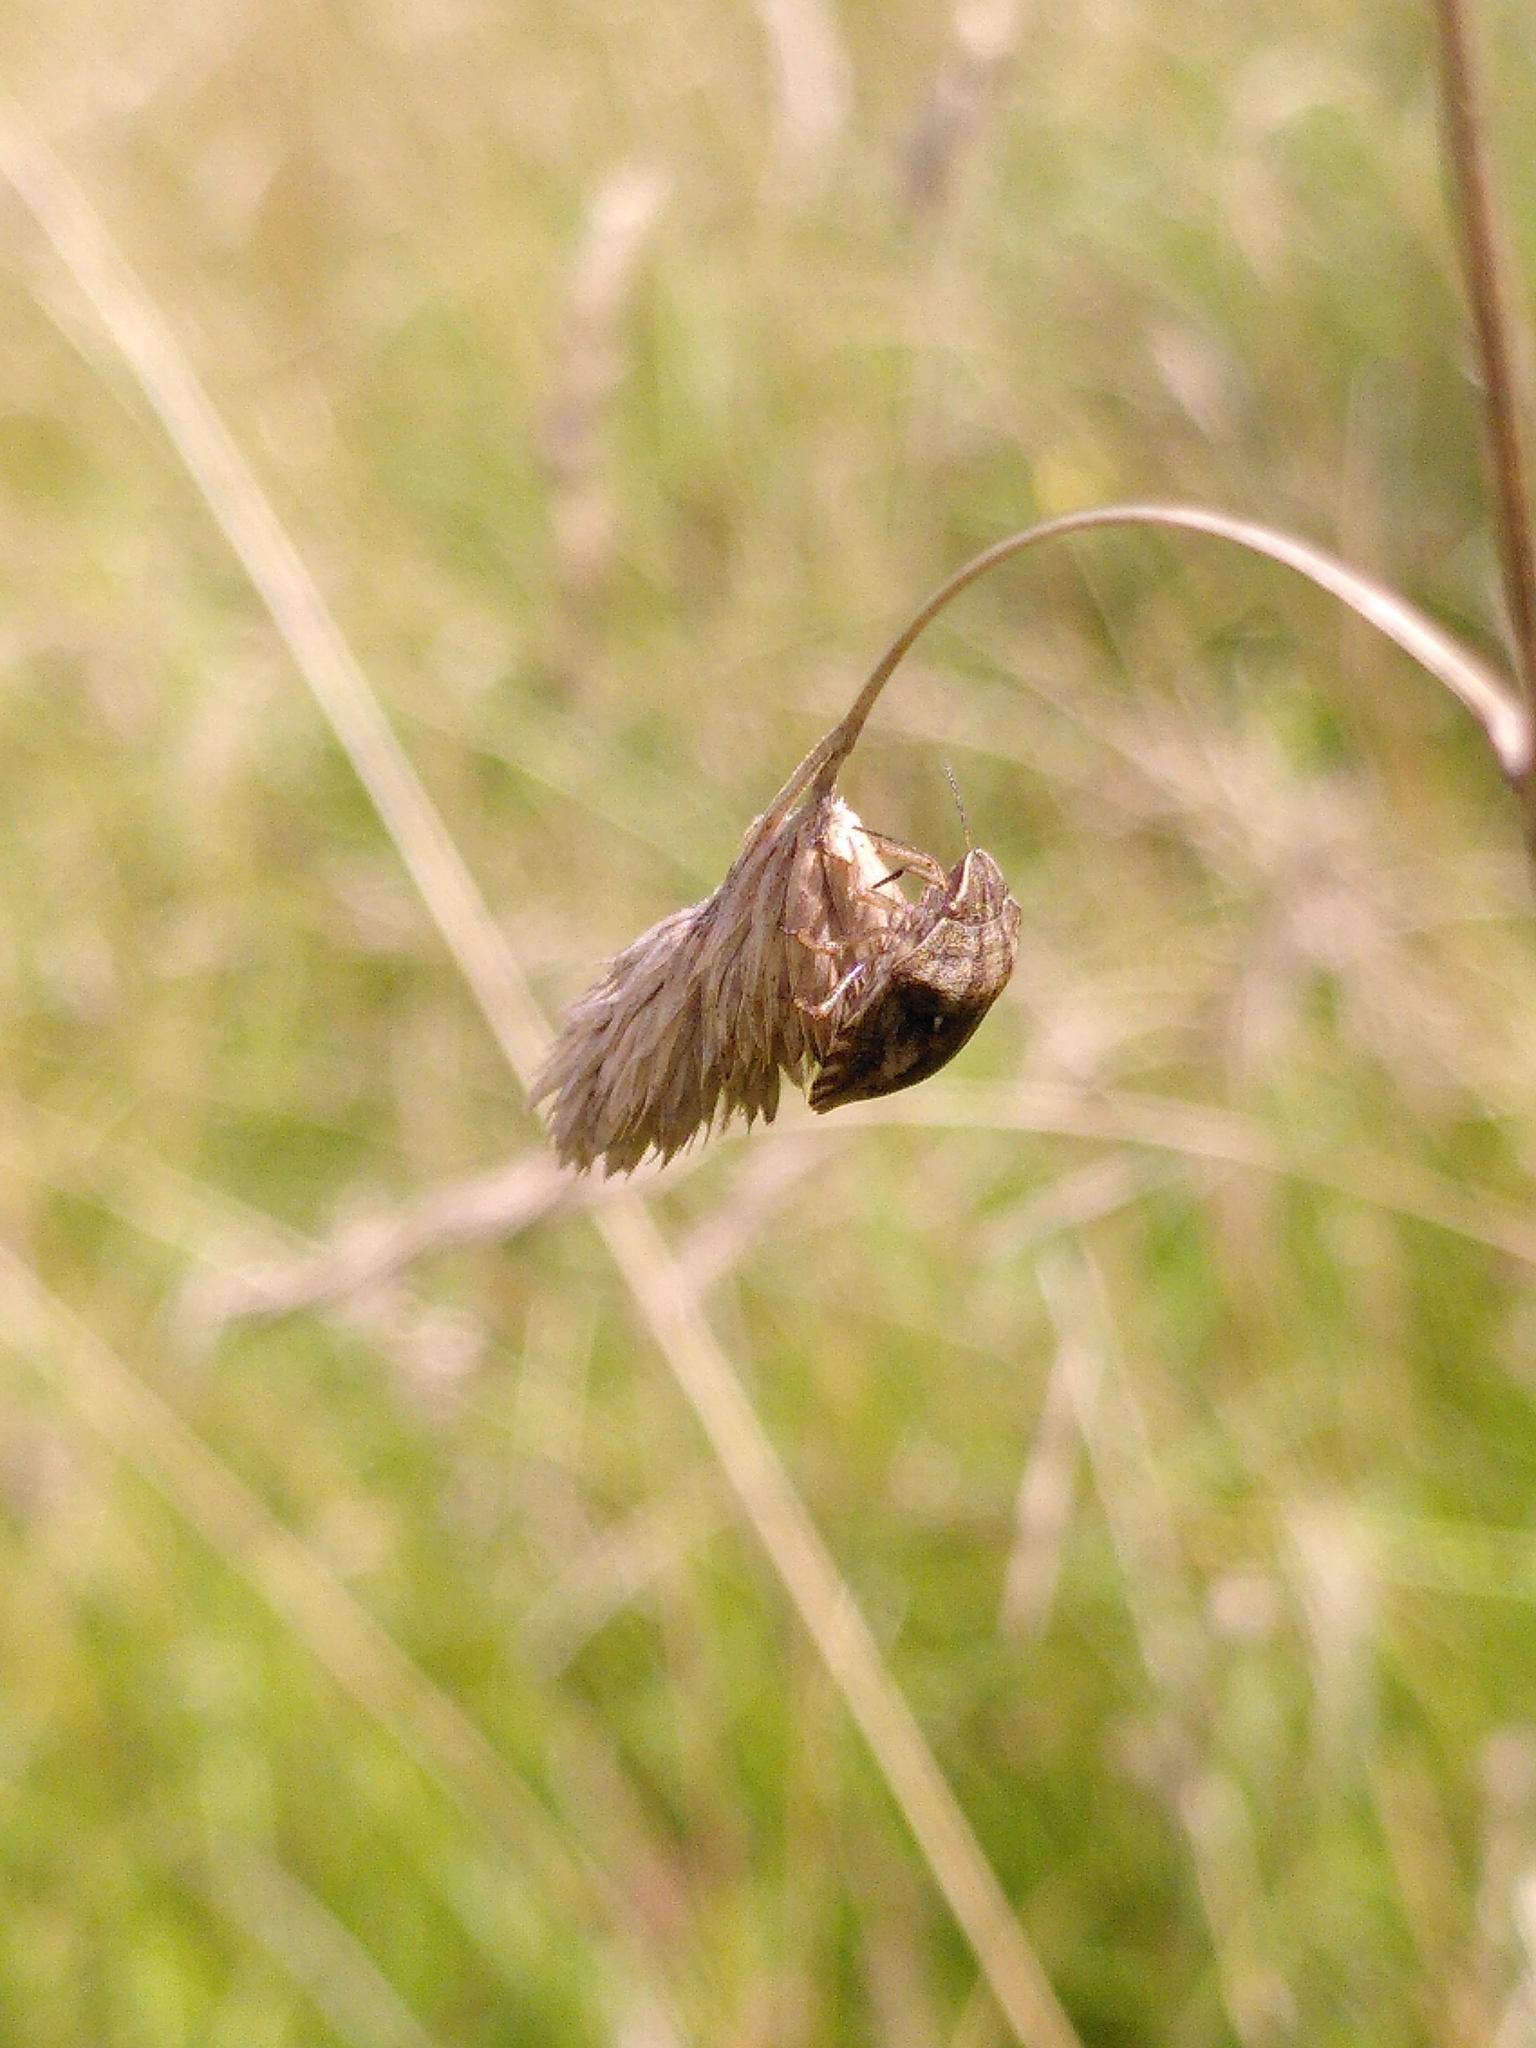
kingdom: Animalia
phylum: Arthropoda
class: Insecta
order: Hemiptera
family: Scutelleridae
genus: Eurygaster
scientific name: Eurygaster testudinaria
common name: Tortoise bug
